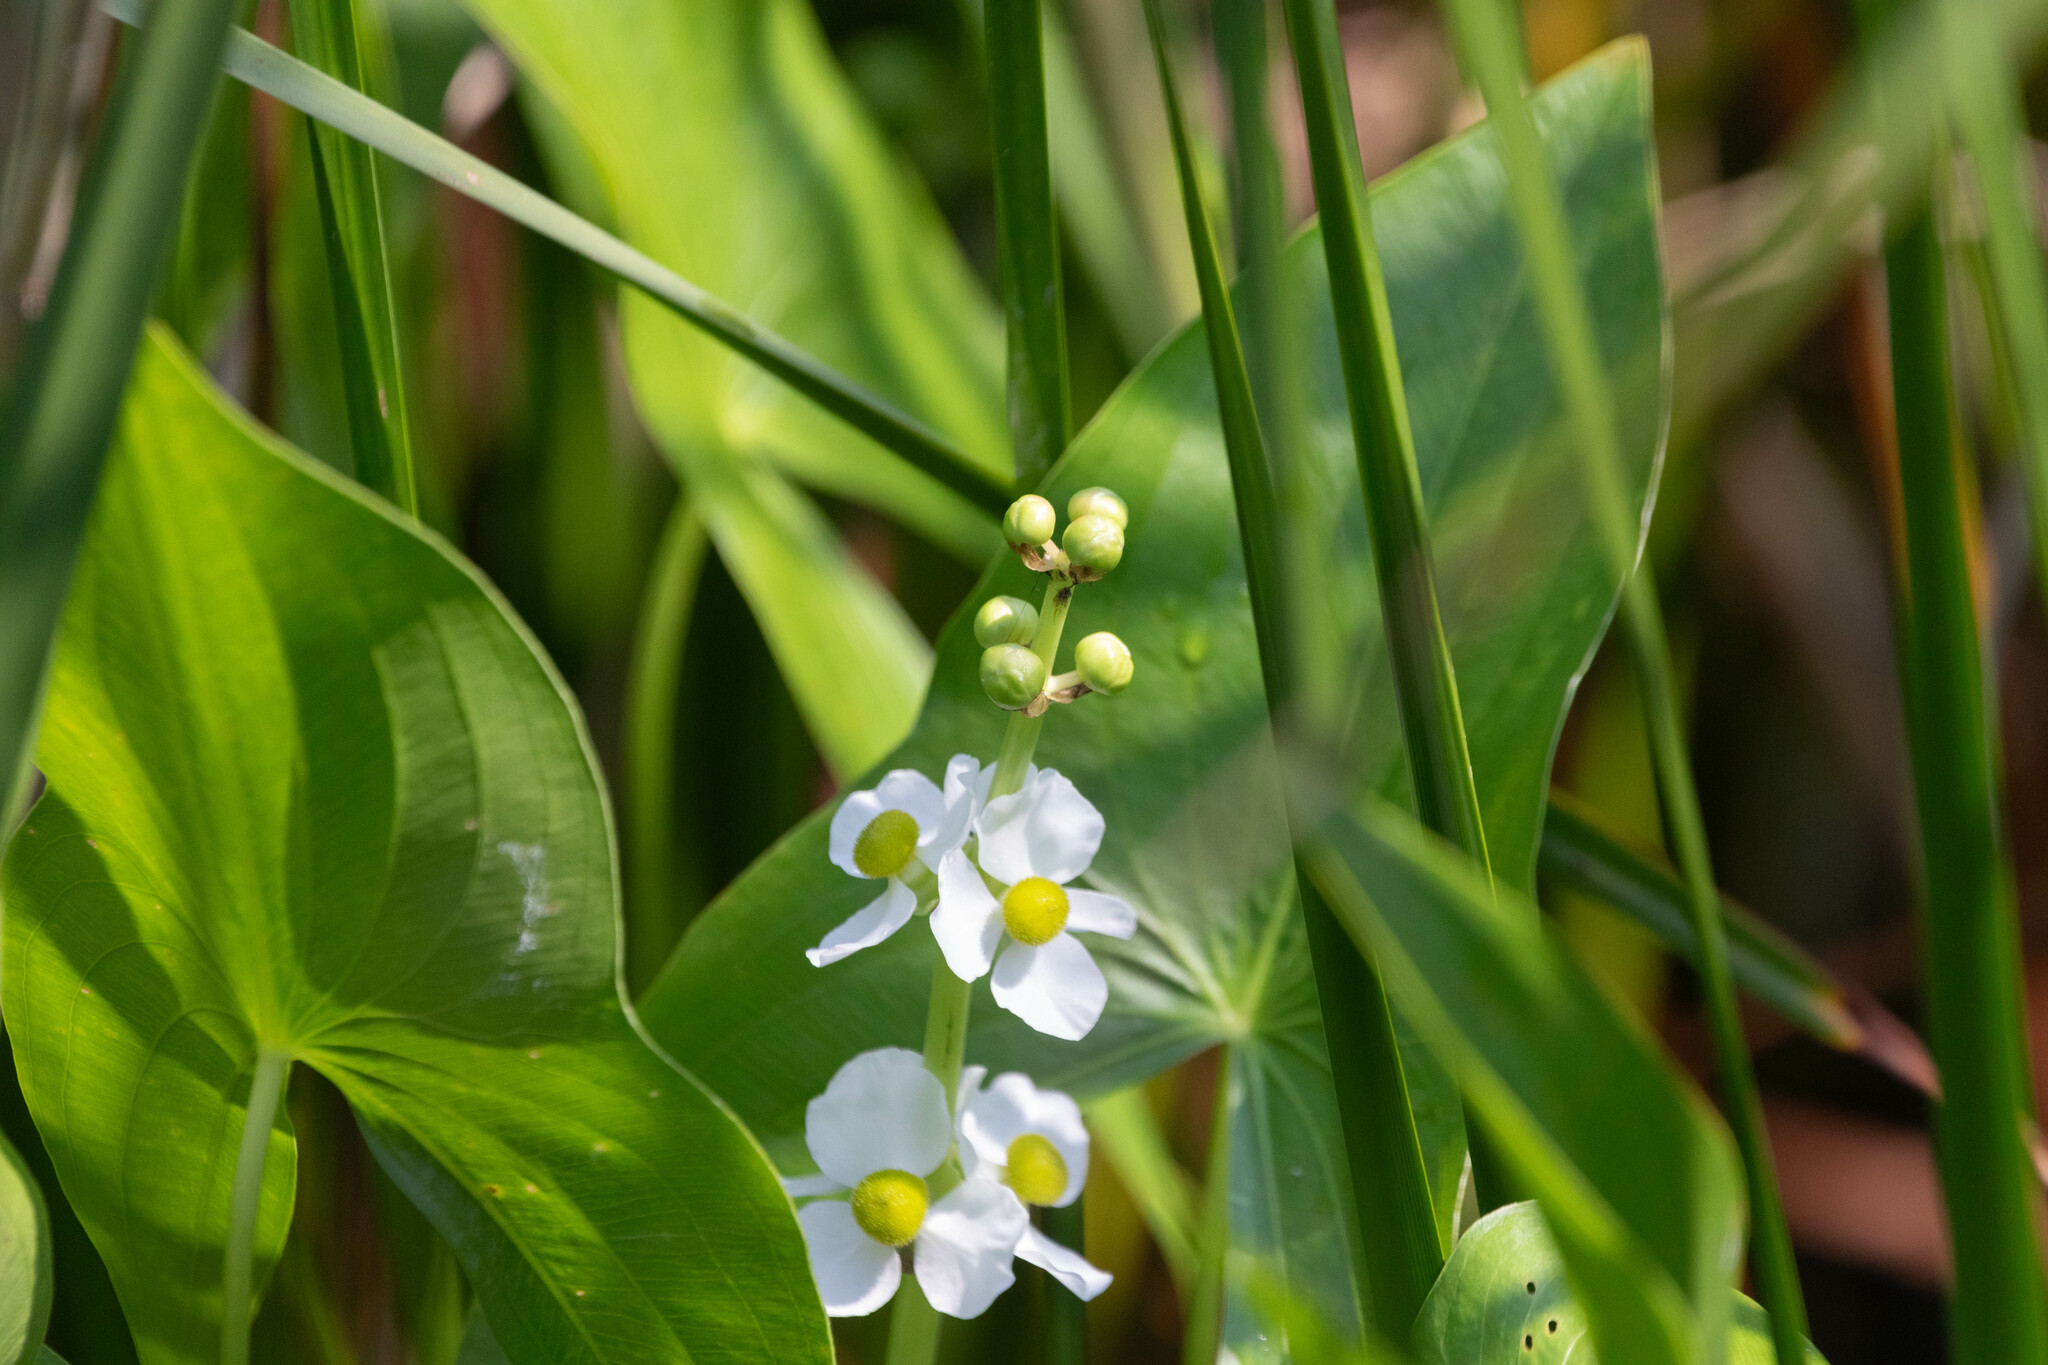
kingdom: Plantae
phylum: Tracheophyta
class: Liliopsida
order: Alismatales
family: Alismataceae
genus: Sagittaria
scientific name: Sagittaria latifolia
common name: Duck-potato
